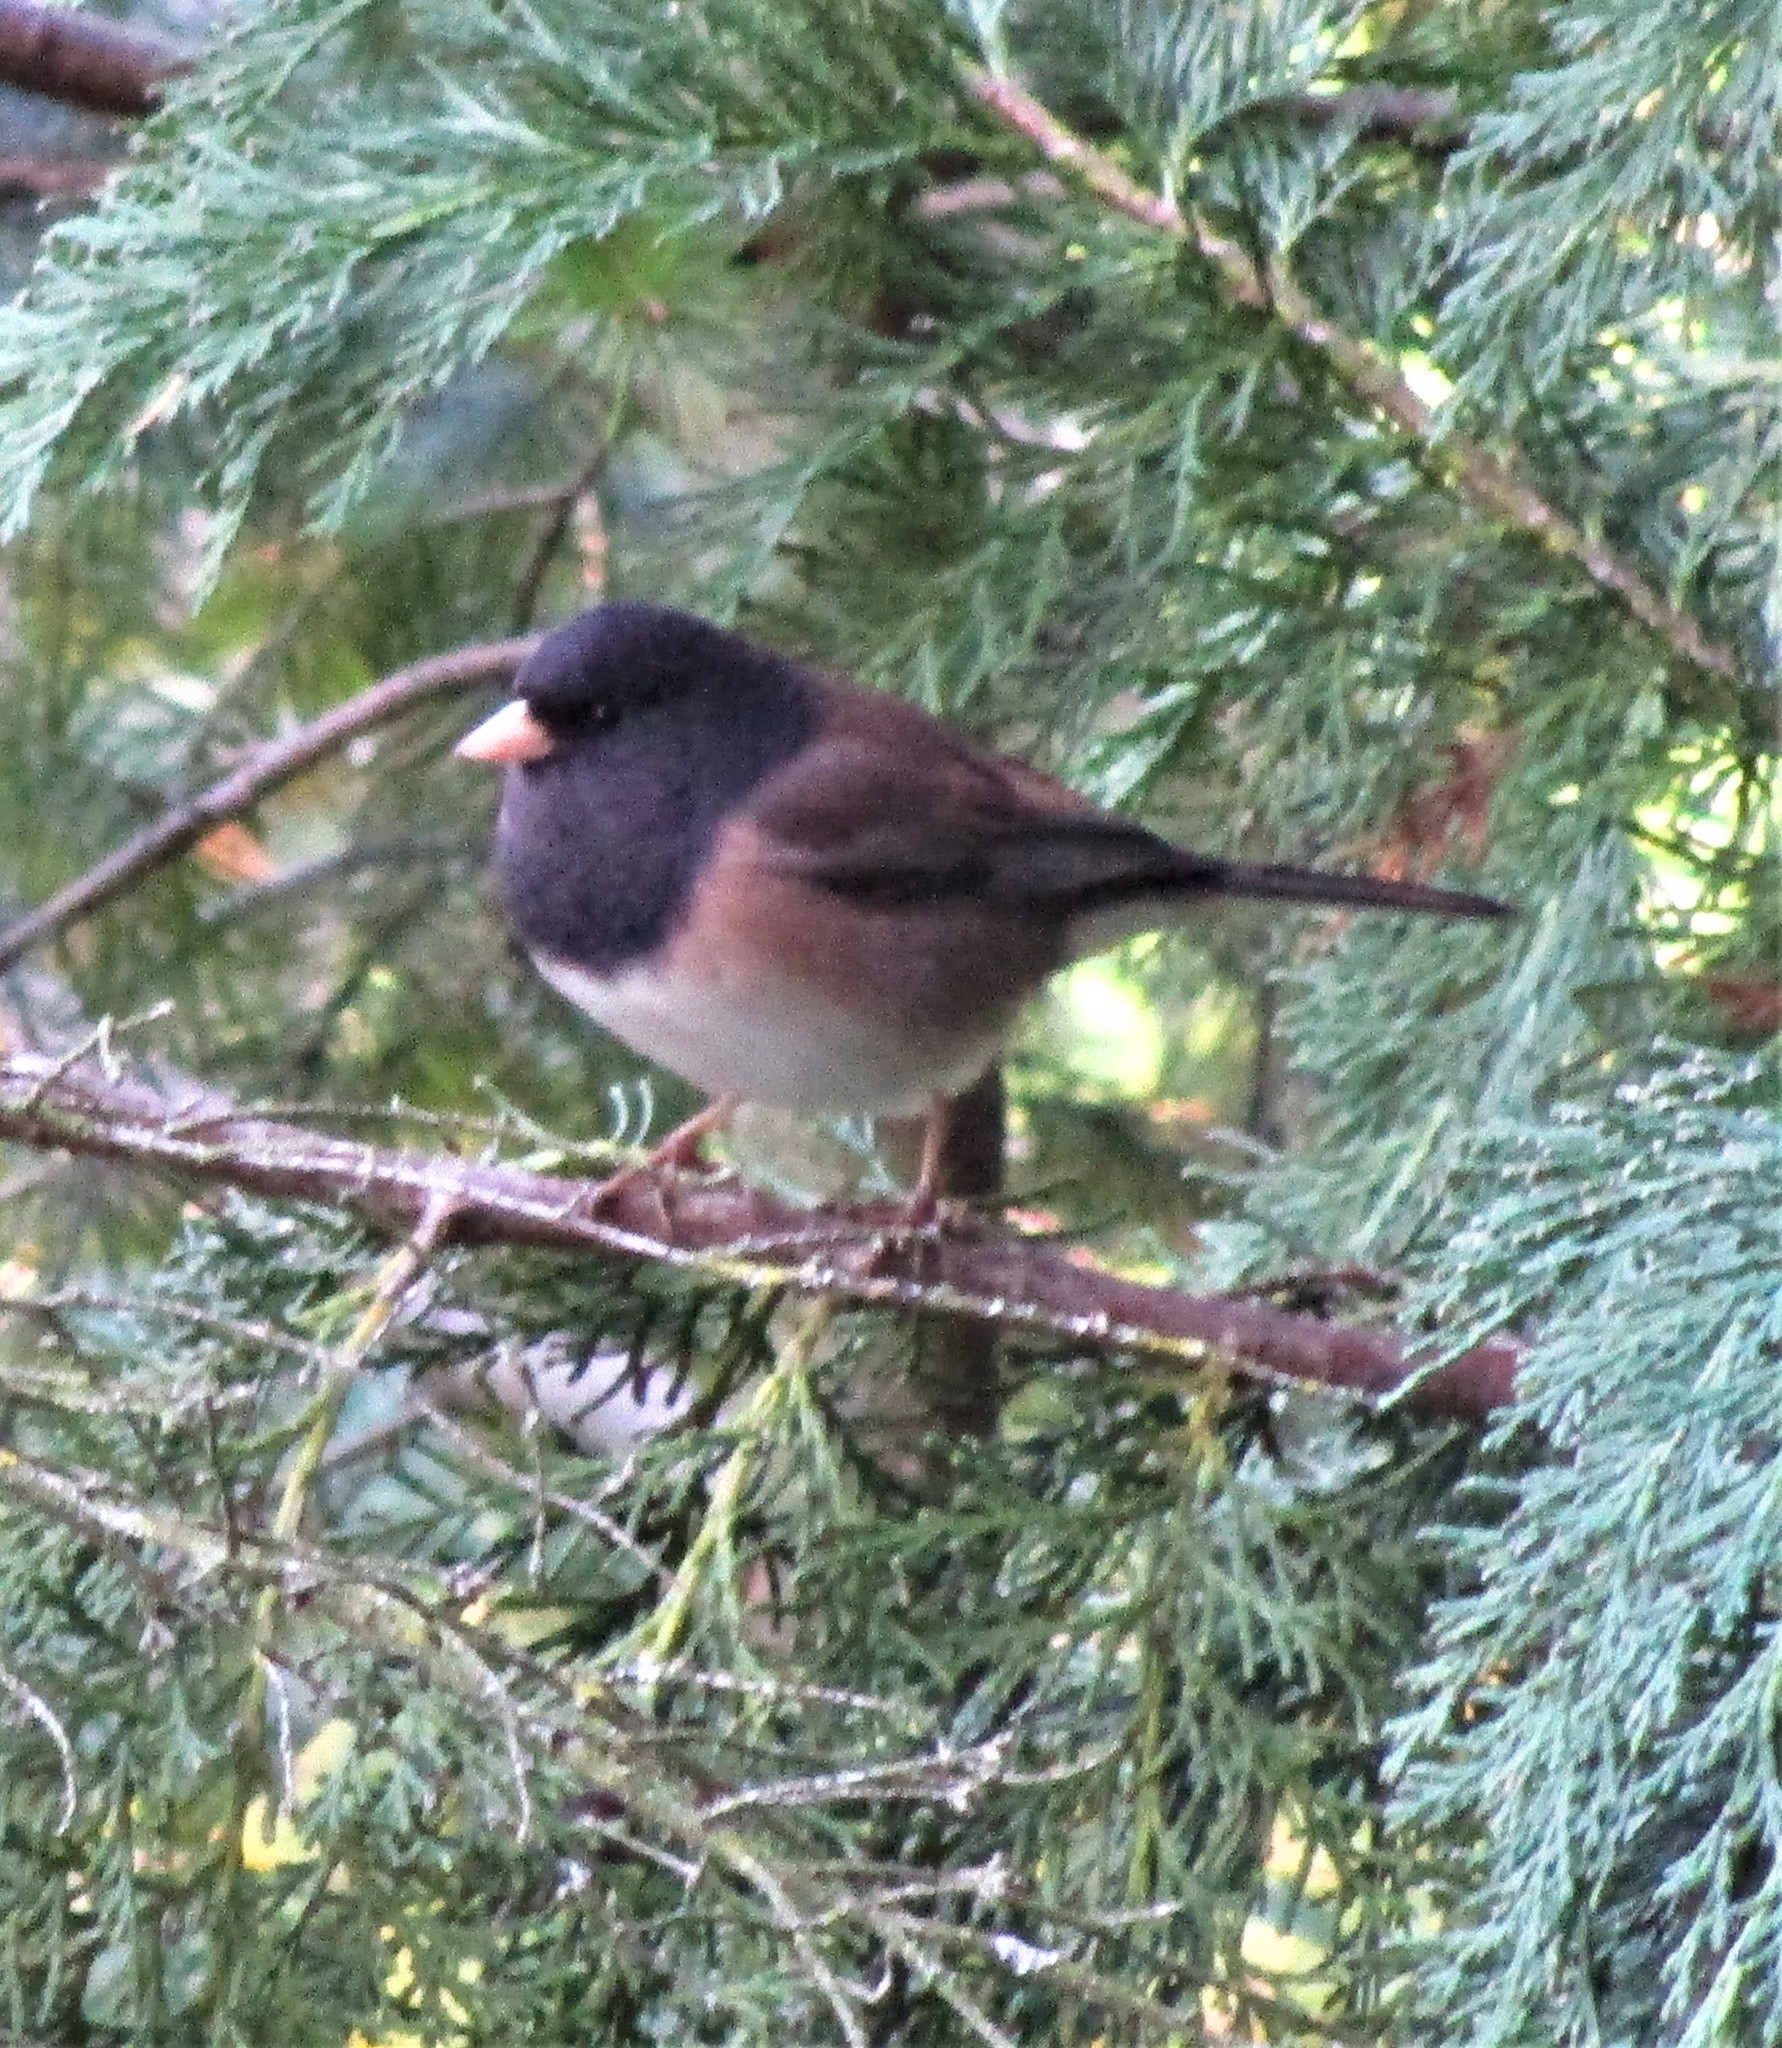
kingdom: Animalia
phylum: Chordata
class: Aves
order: Passeriformes
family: Passerellidae
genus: Junco
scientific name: Junco hyemalis
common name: Dark-eyed junco
